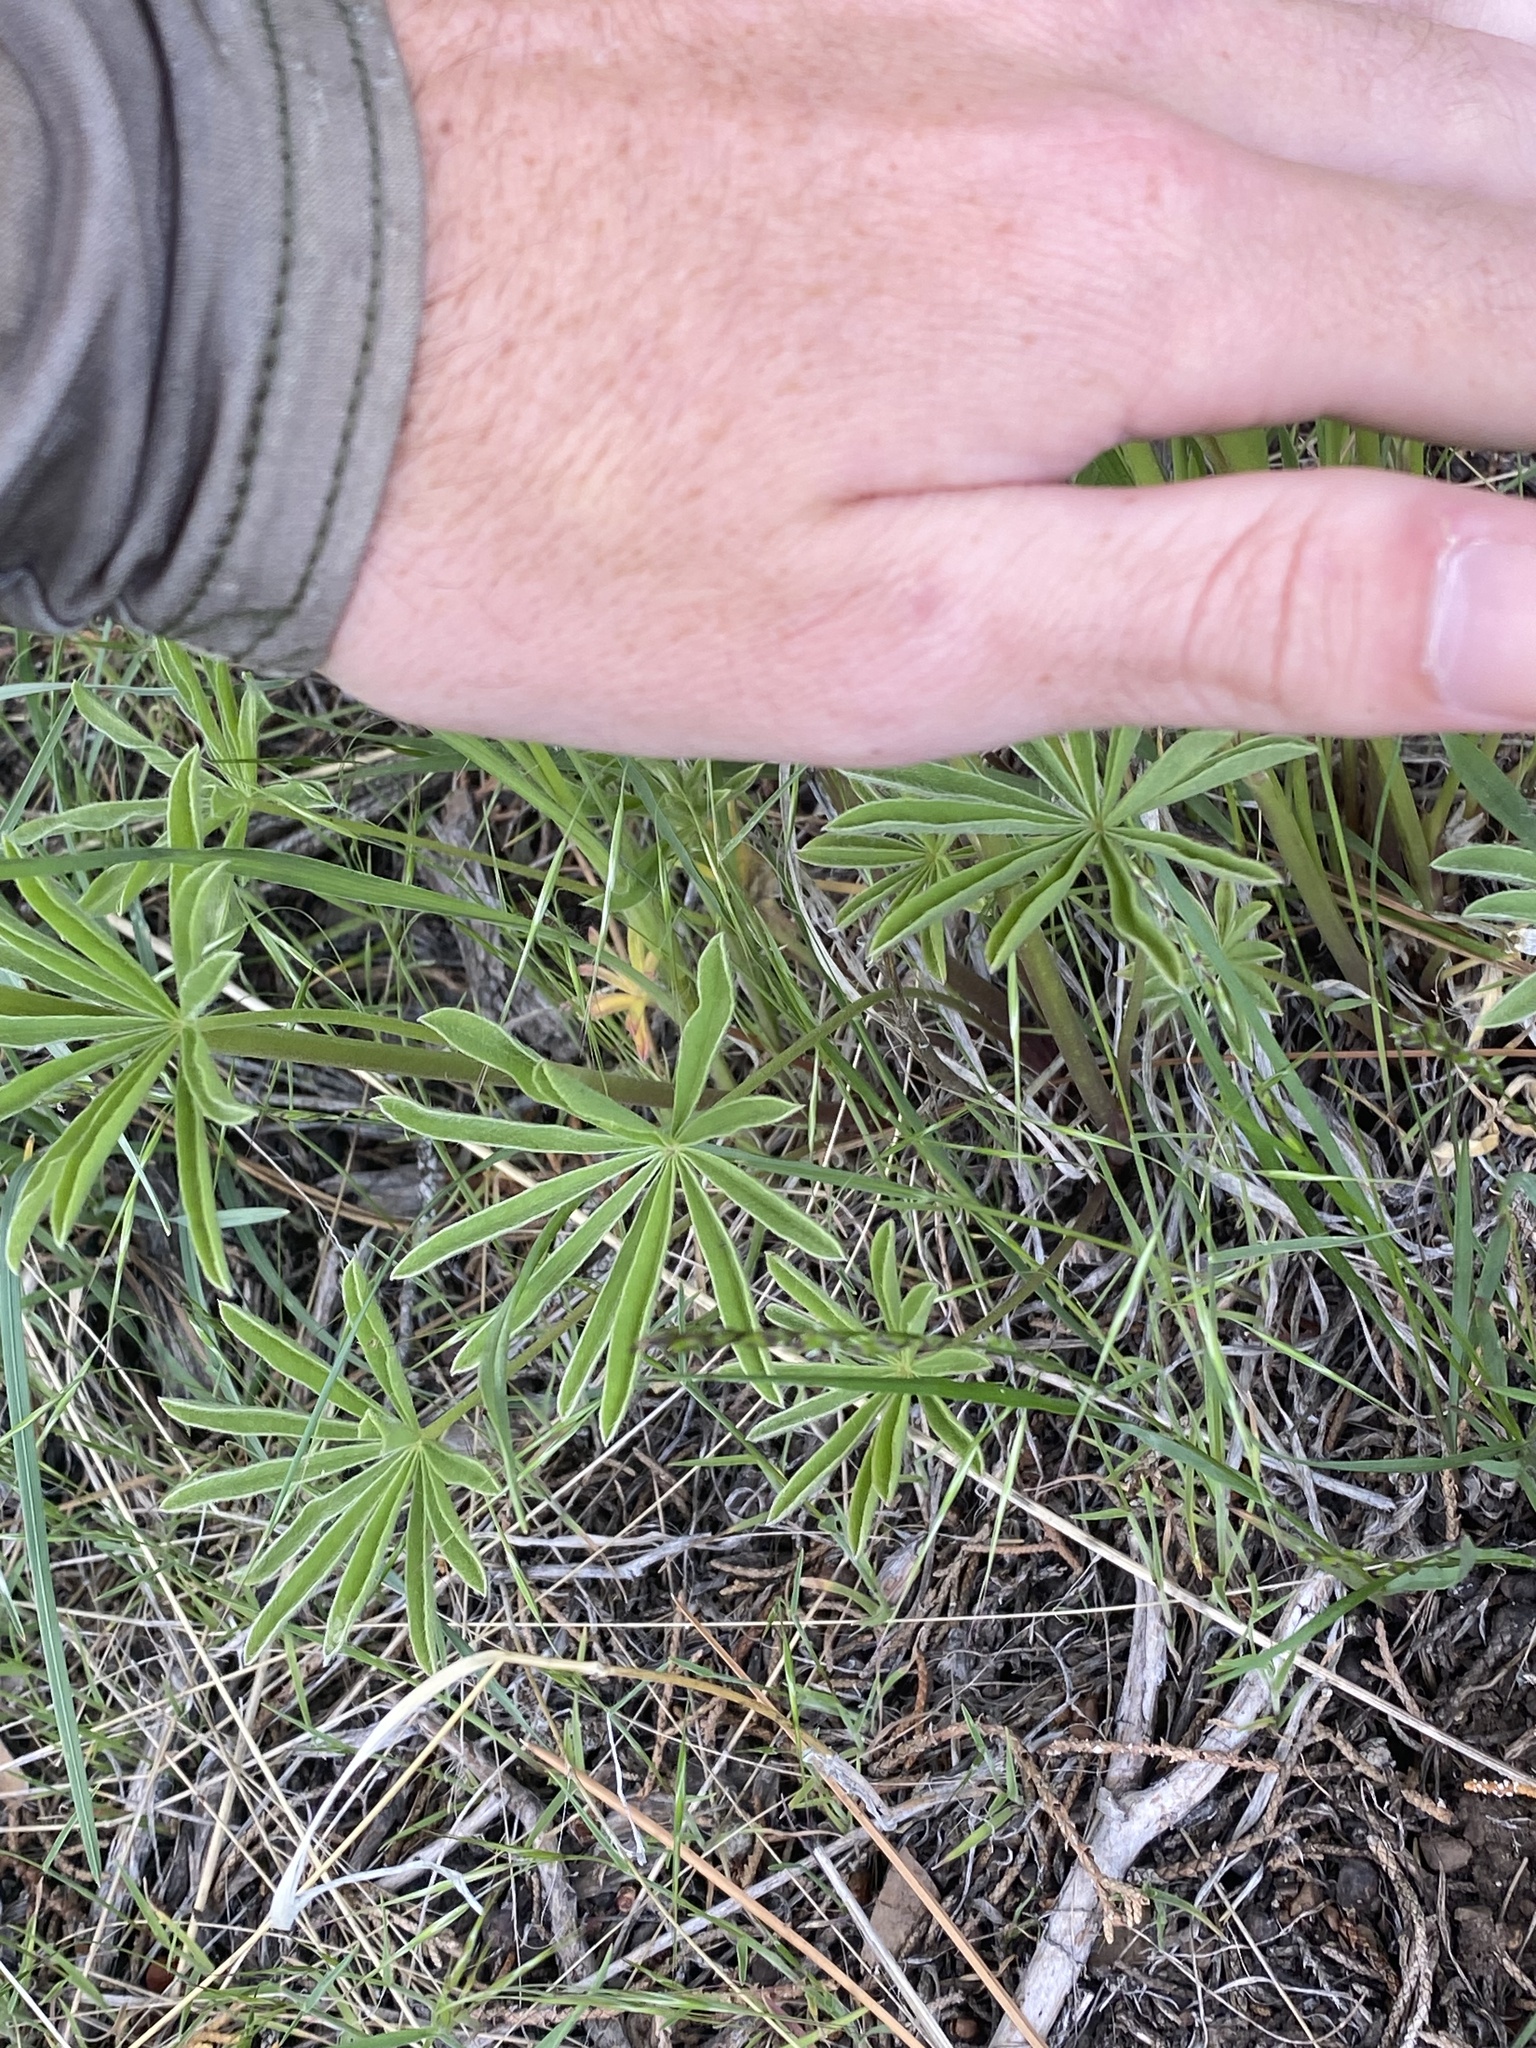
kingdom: Plantae
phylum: Tracheophyta
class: Magnoliopsida
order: Fabales
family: Fabaceae
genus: Lupinus
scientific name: Lupinus arbustus
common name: Montana lupine
